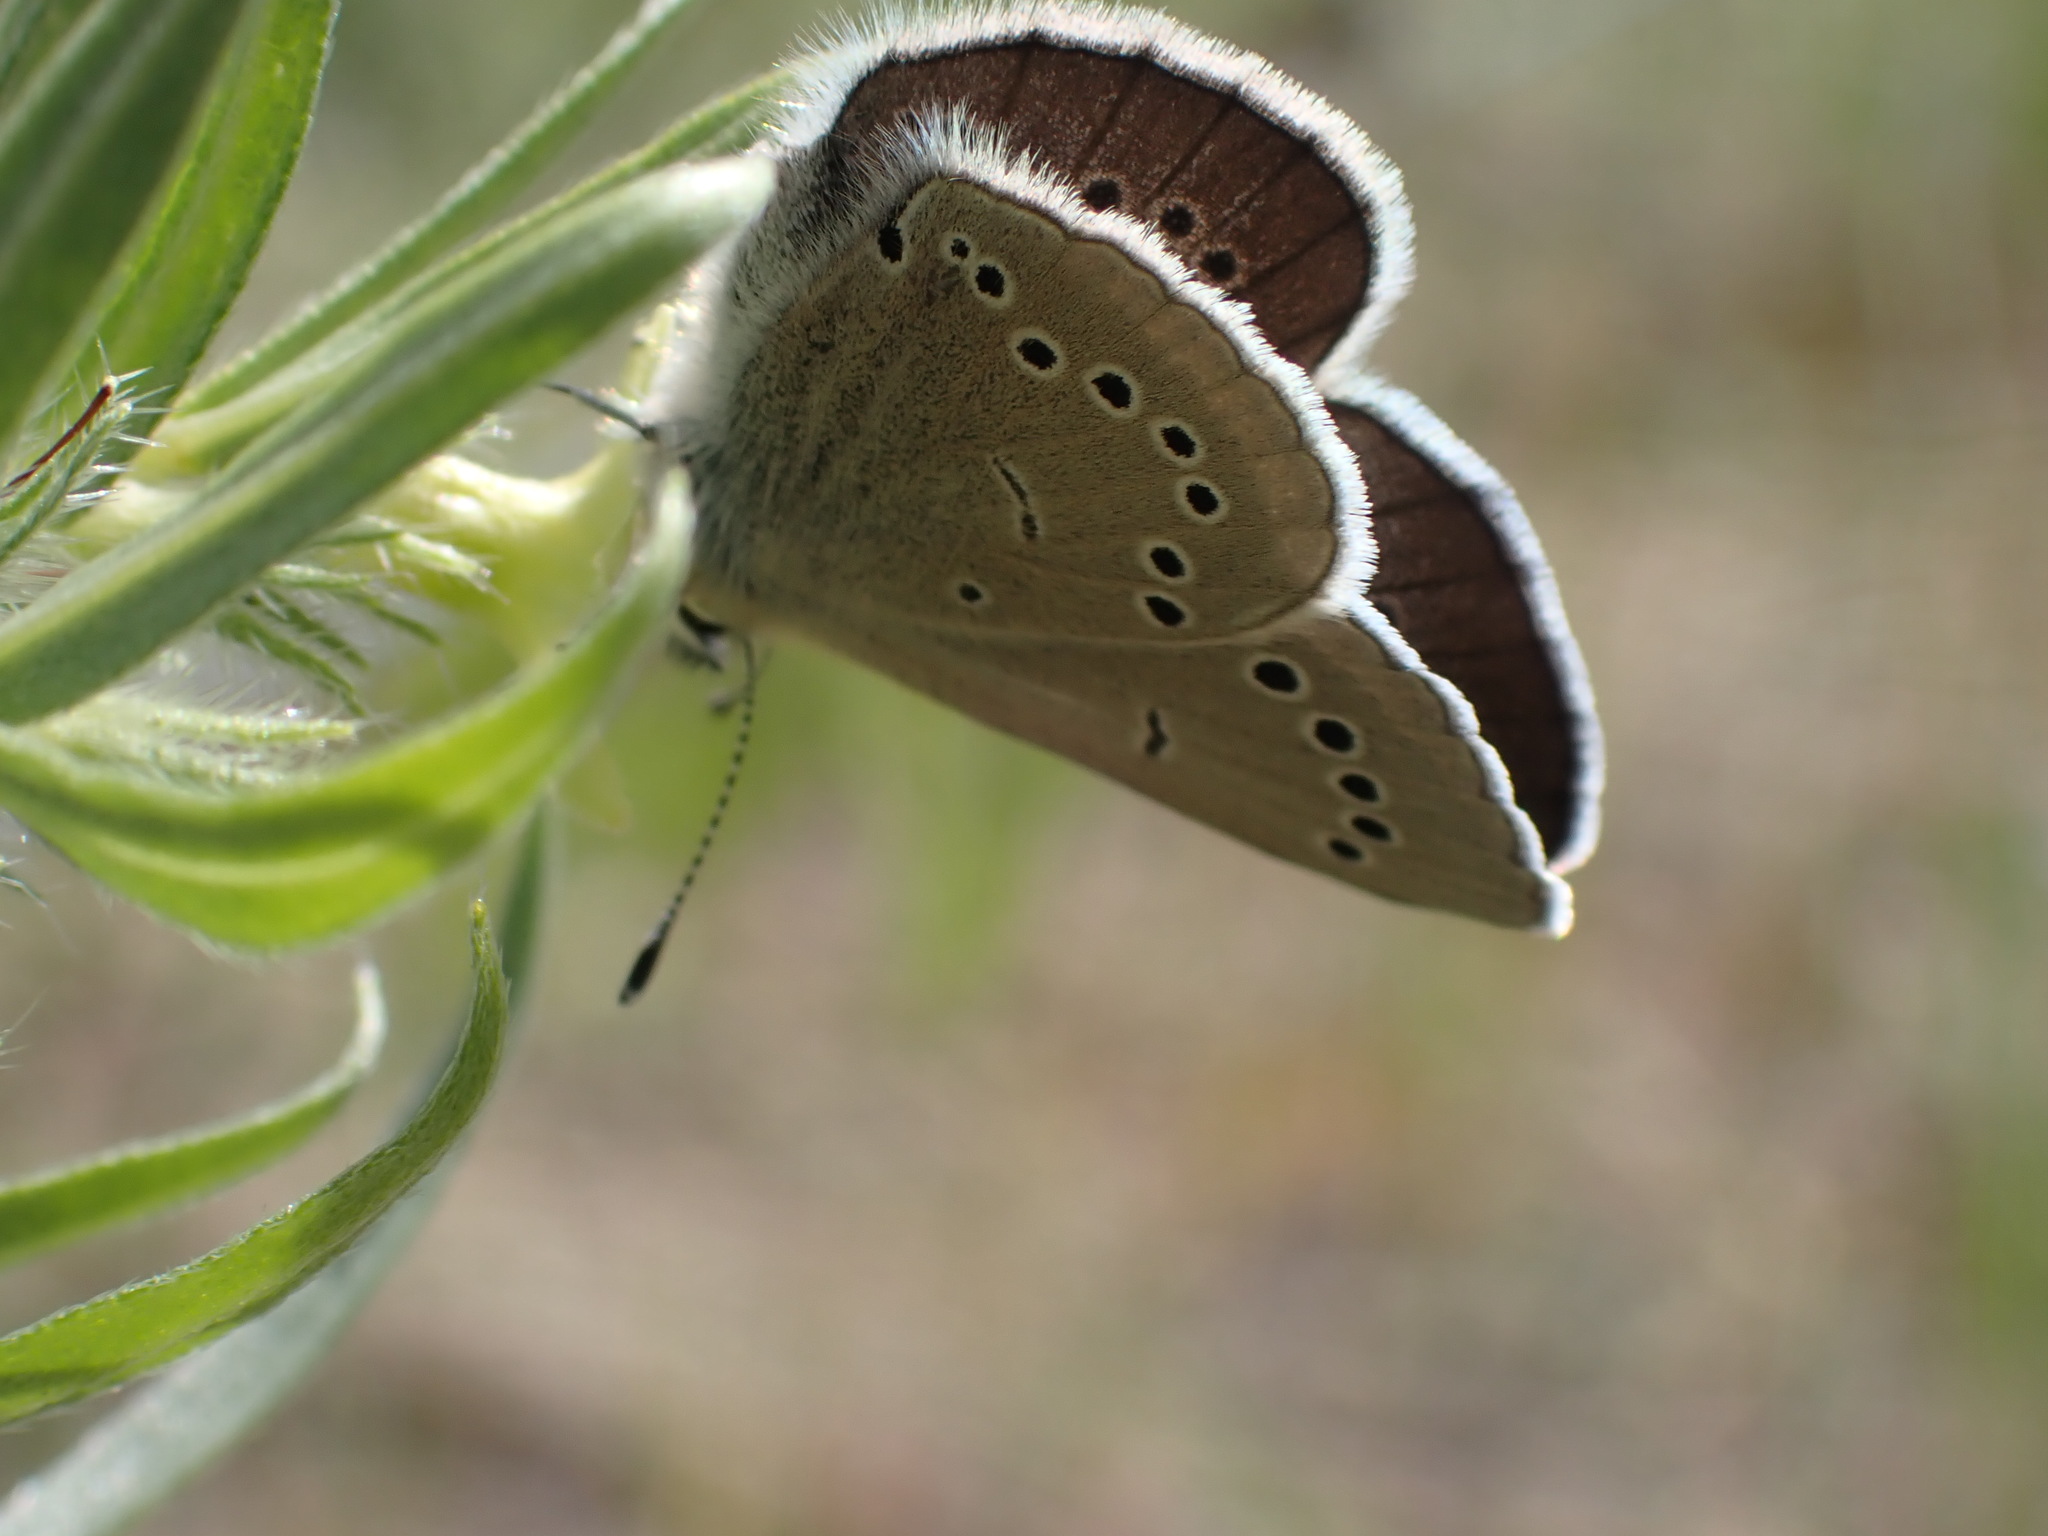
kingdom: Animalia
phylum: Arthropoda
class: Insecta
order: Lepidoptera
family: Lycaenidae
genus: Glaucopsyche
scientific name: Glaucopsyche lygdamus
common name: Silvery blue
